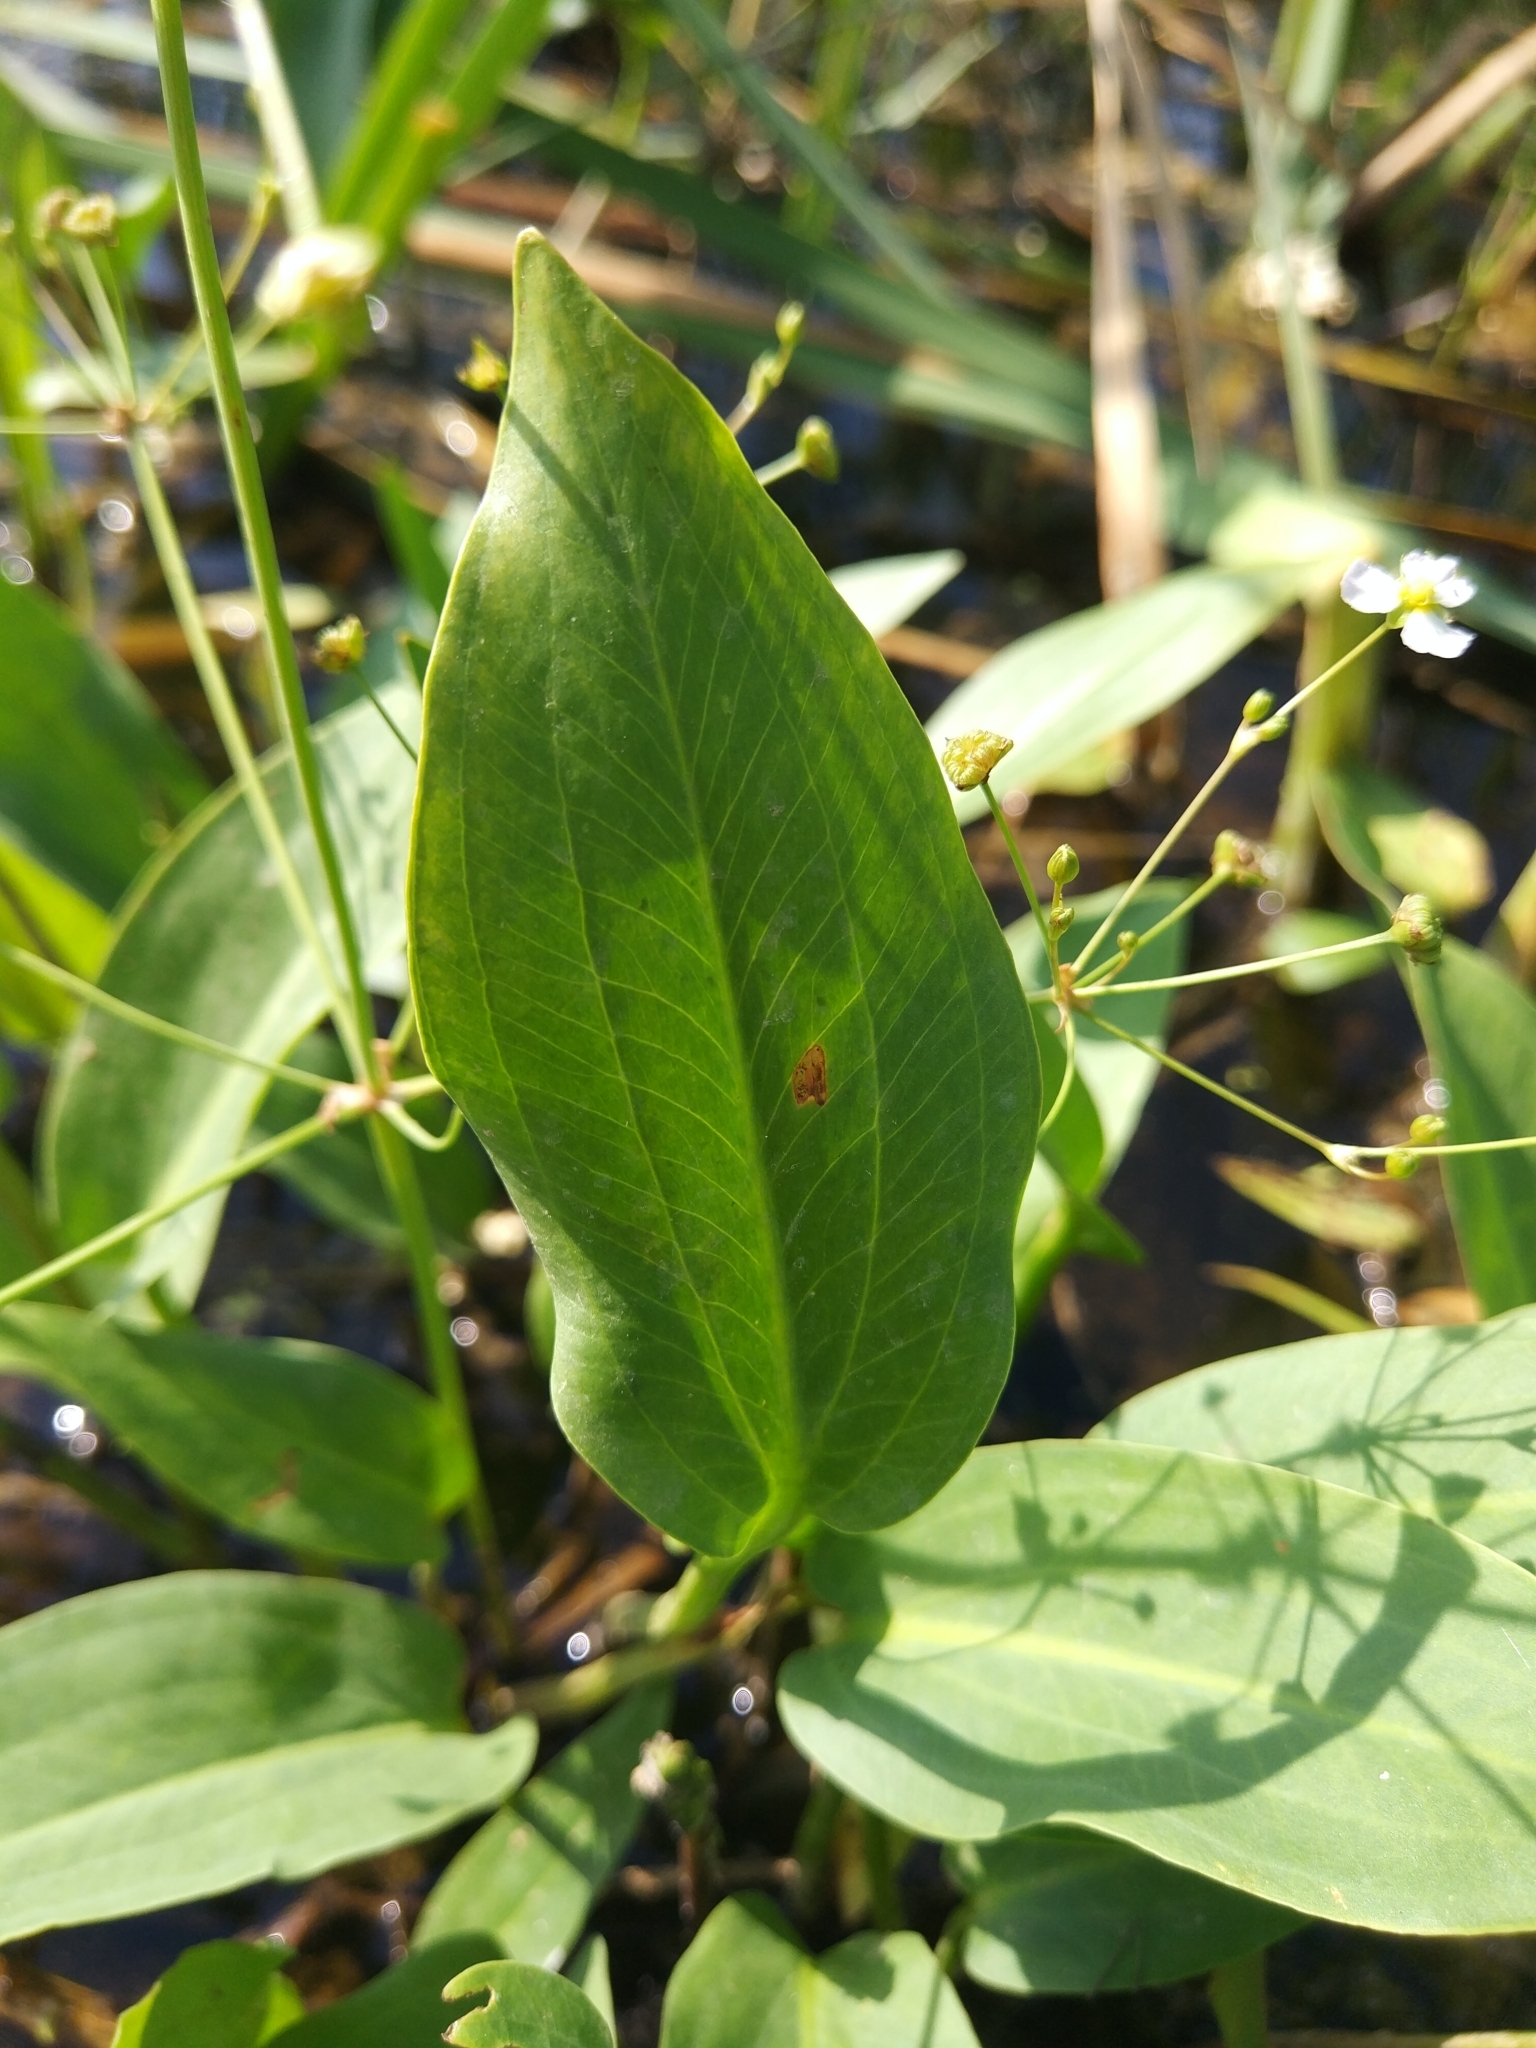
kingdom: Plantae
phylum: Tracheophyta
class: Liliopsida
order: Alismatales
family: Alismataceae
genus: Alisma
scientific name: Alisma plantago-aquatica
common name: Water-plantain
